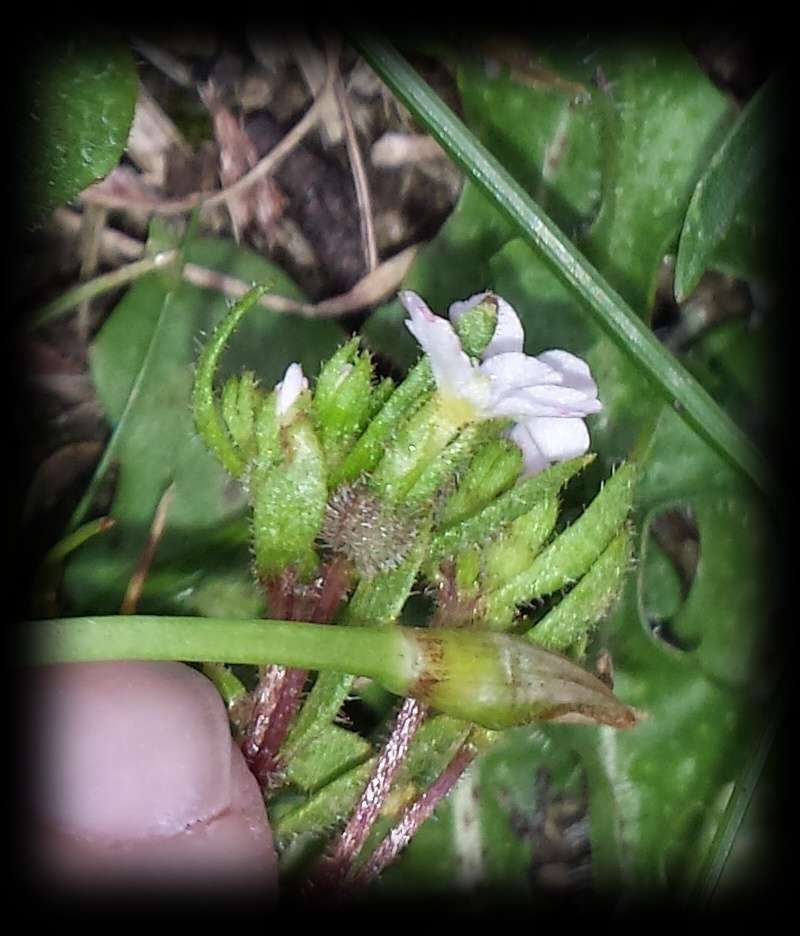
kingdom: Plantae
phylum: Tracheophyta
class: Magnoliopsida
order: Asterales
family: Stylidiaceae
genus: Levenhookia
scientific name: Levenhookia dubia
